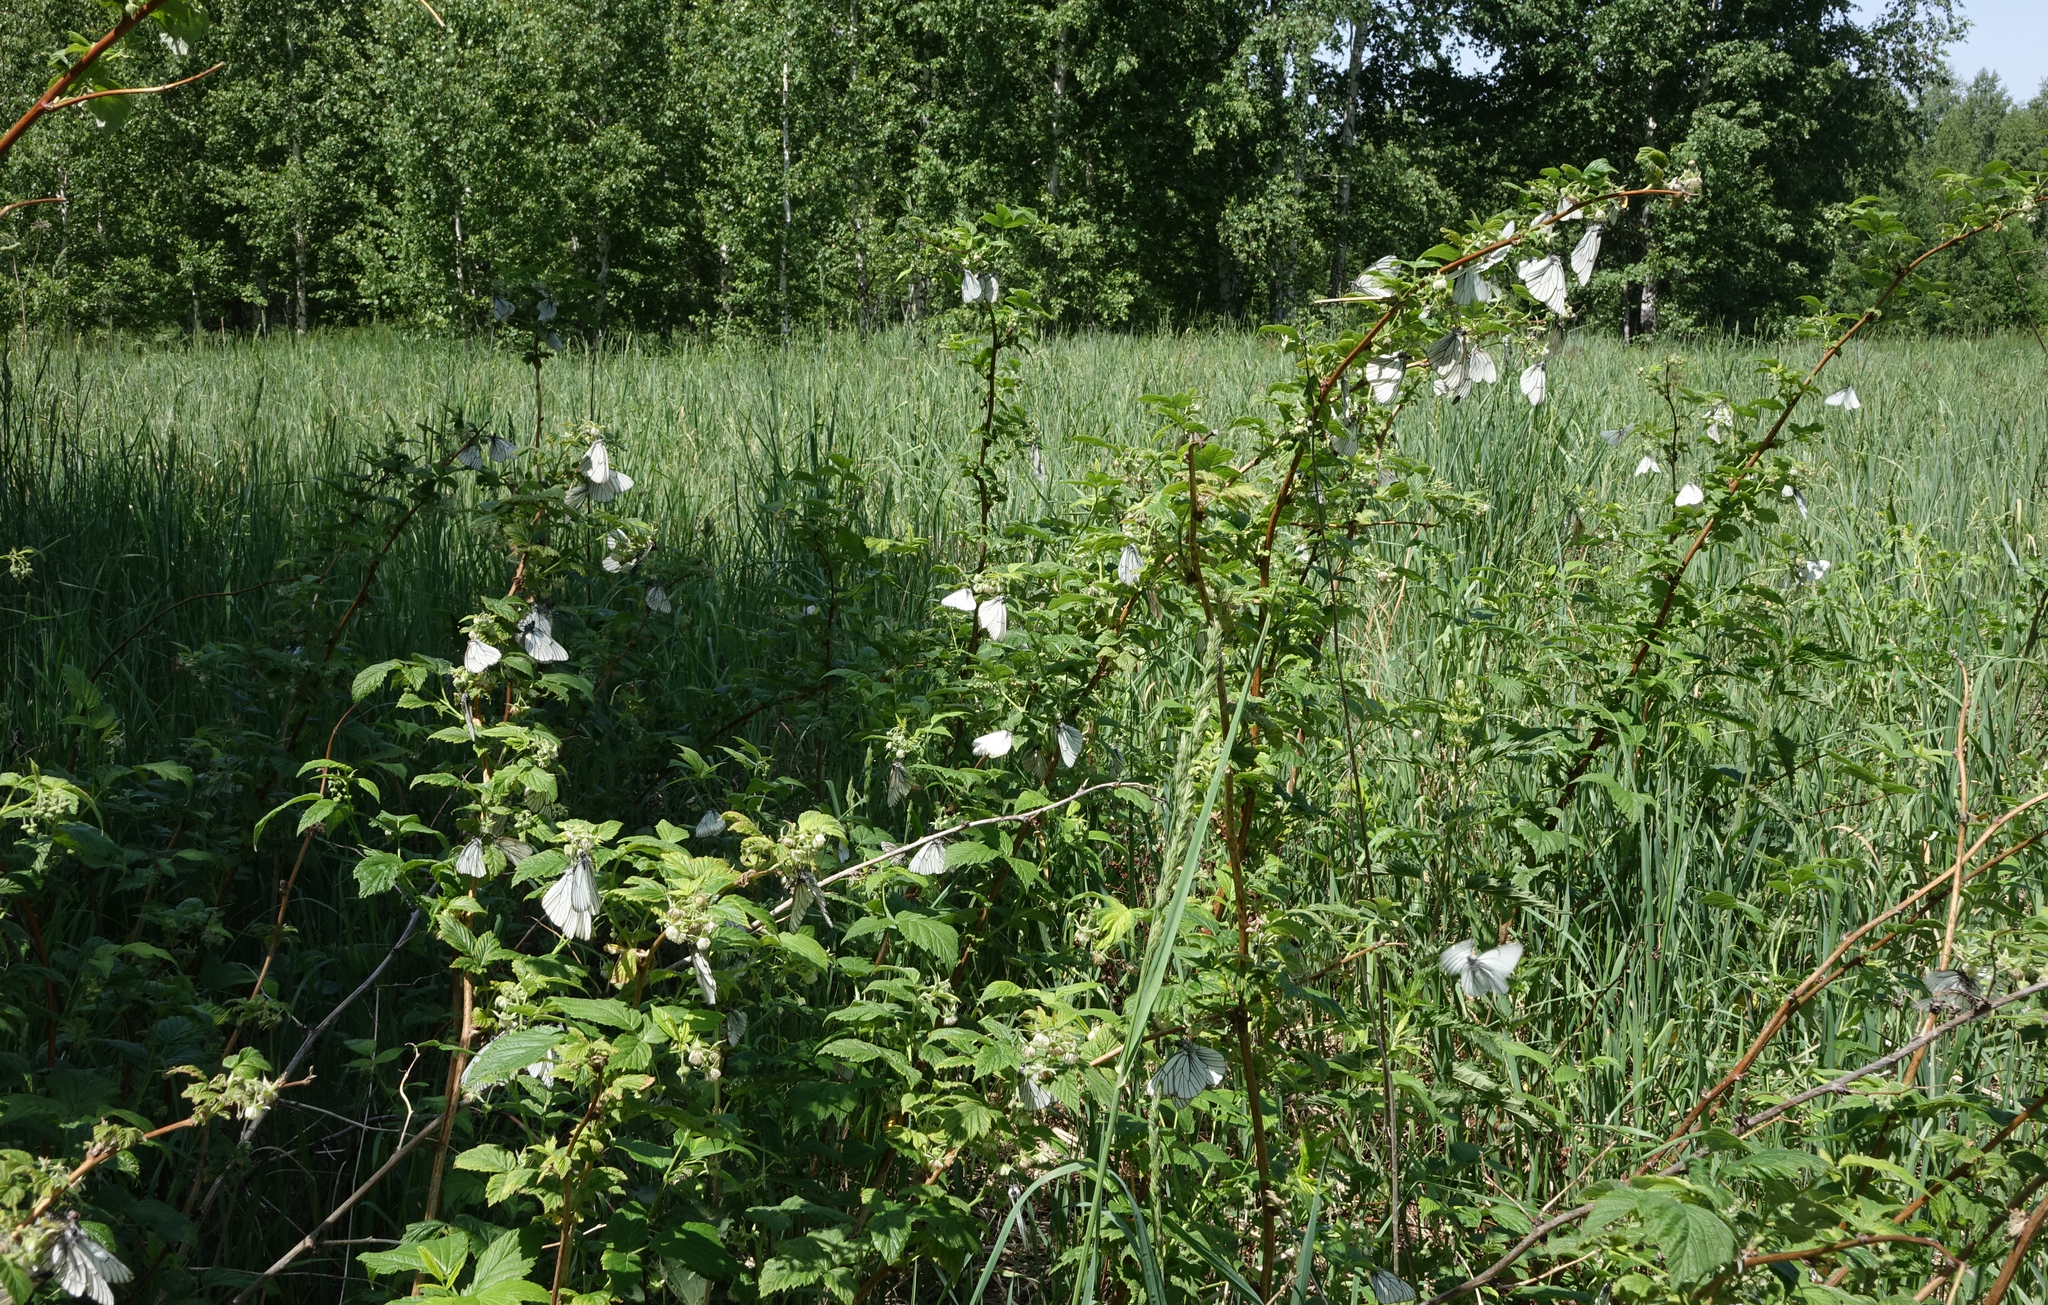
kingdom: Animalia
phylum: Arthropoda
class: Insecta
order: Lepidoptera
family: Pieridae
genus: Aporia
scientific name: Aporia crataegi
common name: Black-veined white
